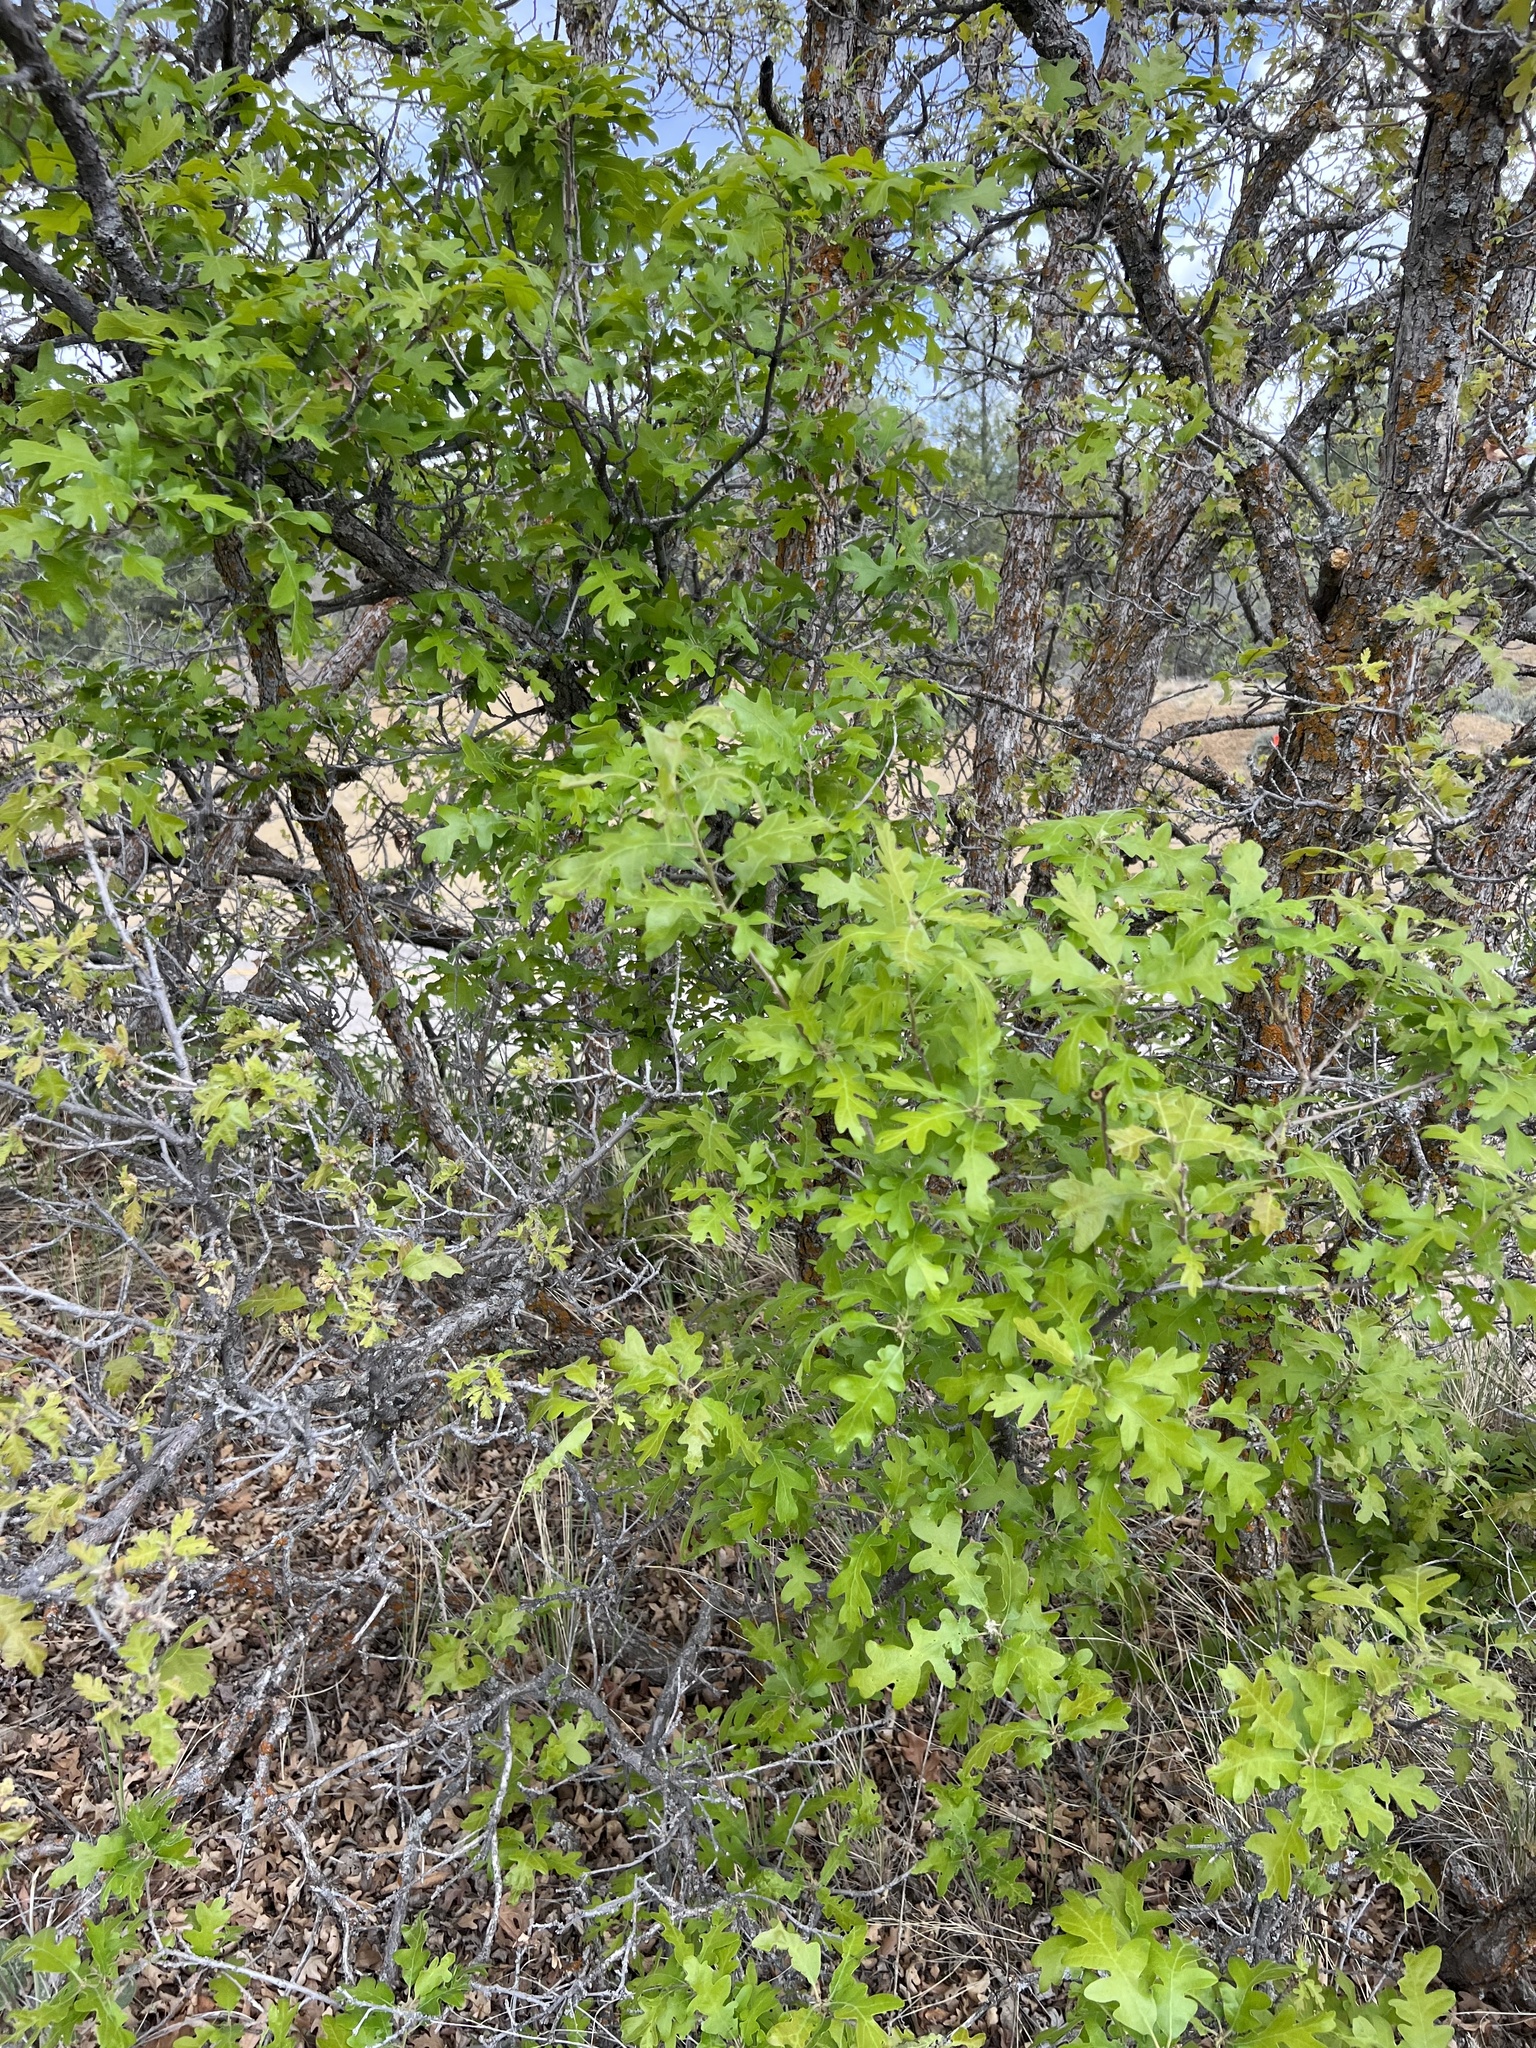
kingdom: Plantae
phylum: Tracheophyta
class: Magnoliopsida
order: Fagales
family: Fagaceae
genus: Quercus
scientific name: Quercus gambelii
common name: Gambel oak
